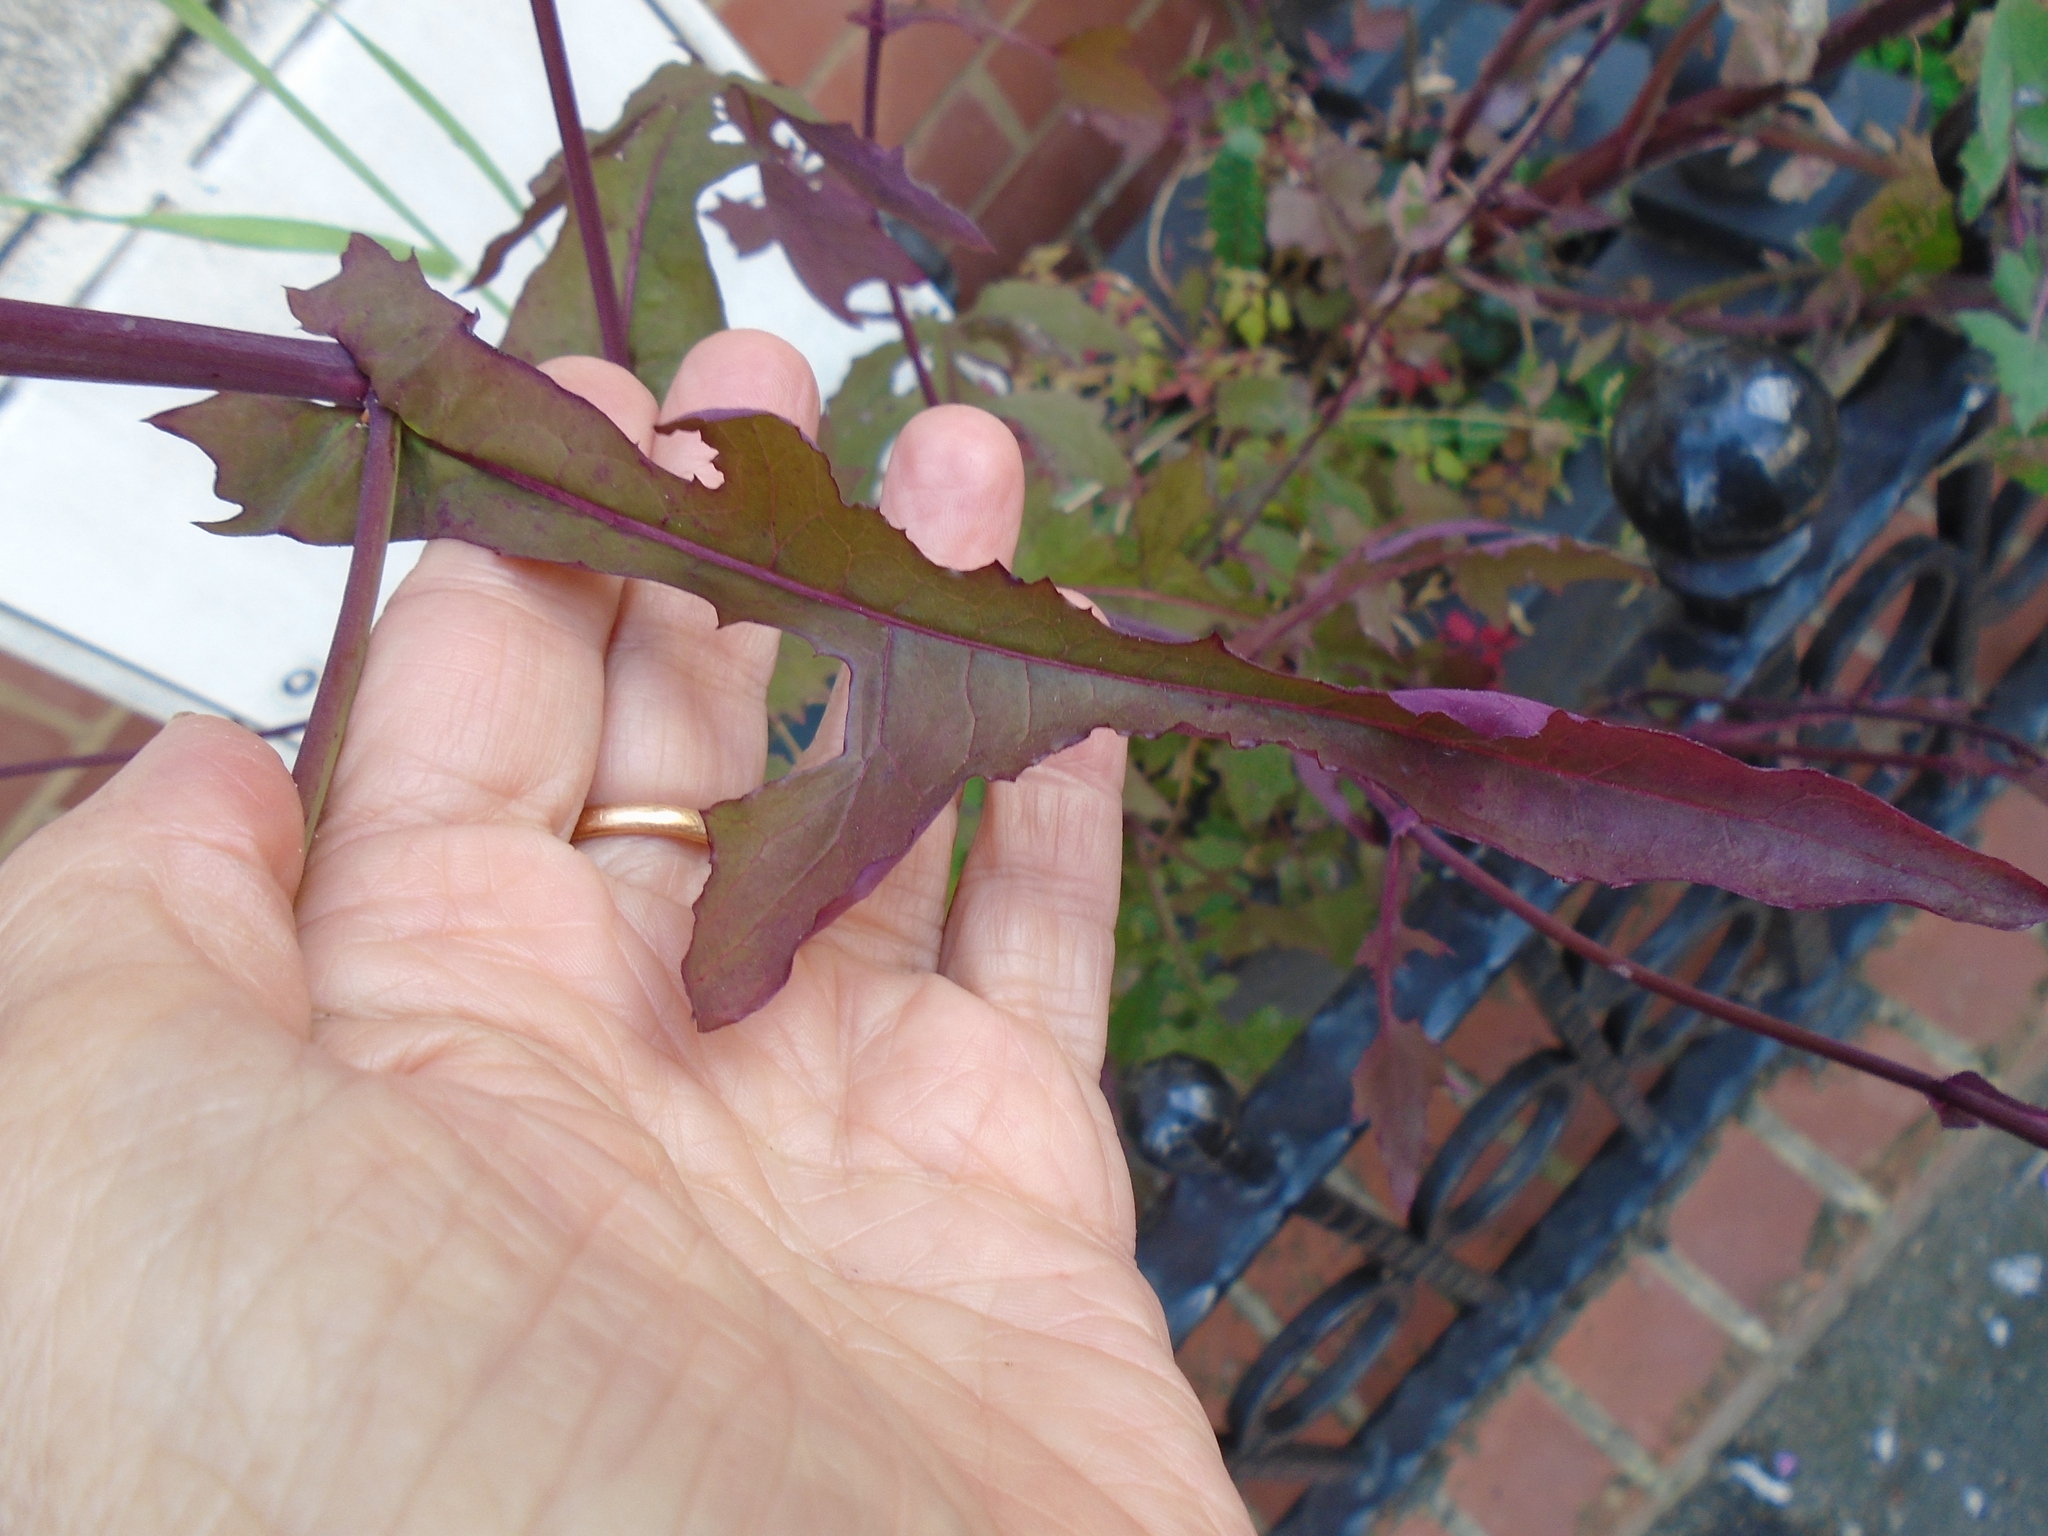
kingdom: Plantae
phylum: Tracheophyta
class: Magnoliopsida
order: Asterales
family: Asteraceae
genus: Mycelis
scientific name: Mycelis muralis
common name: Wall lettuce
